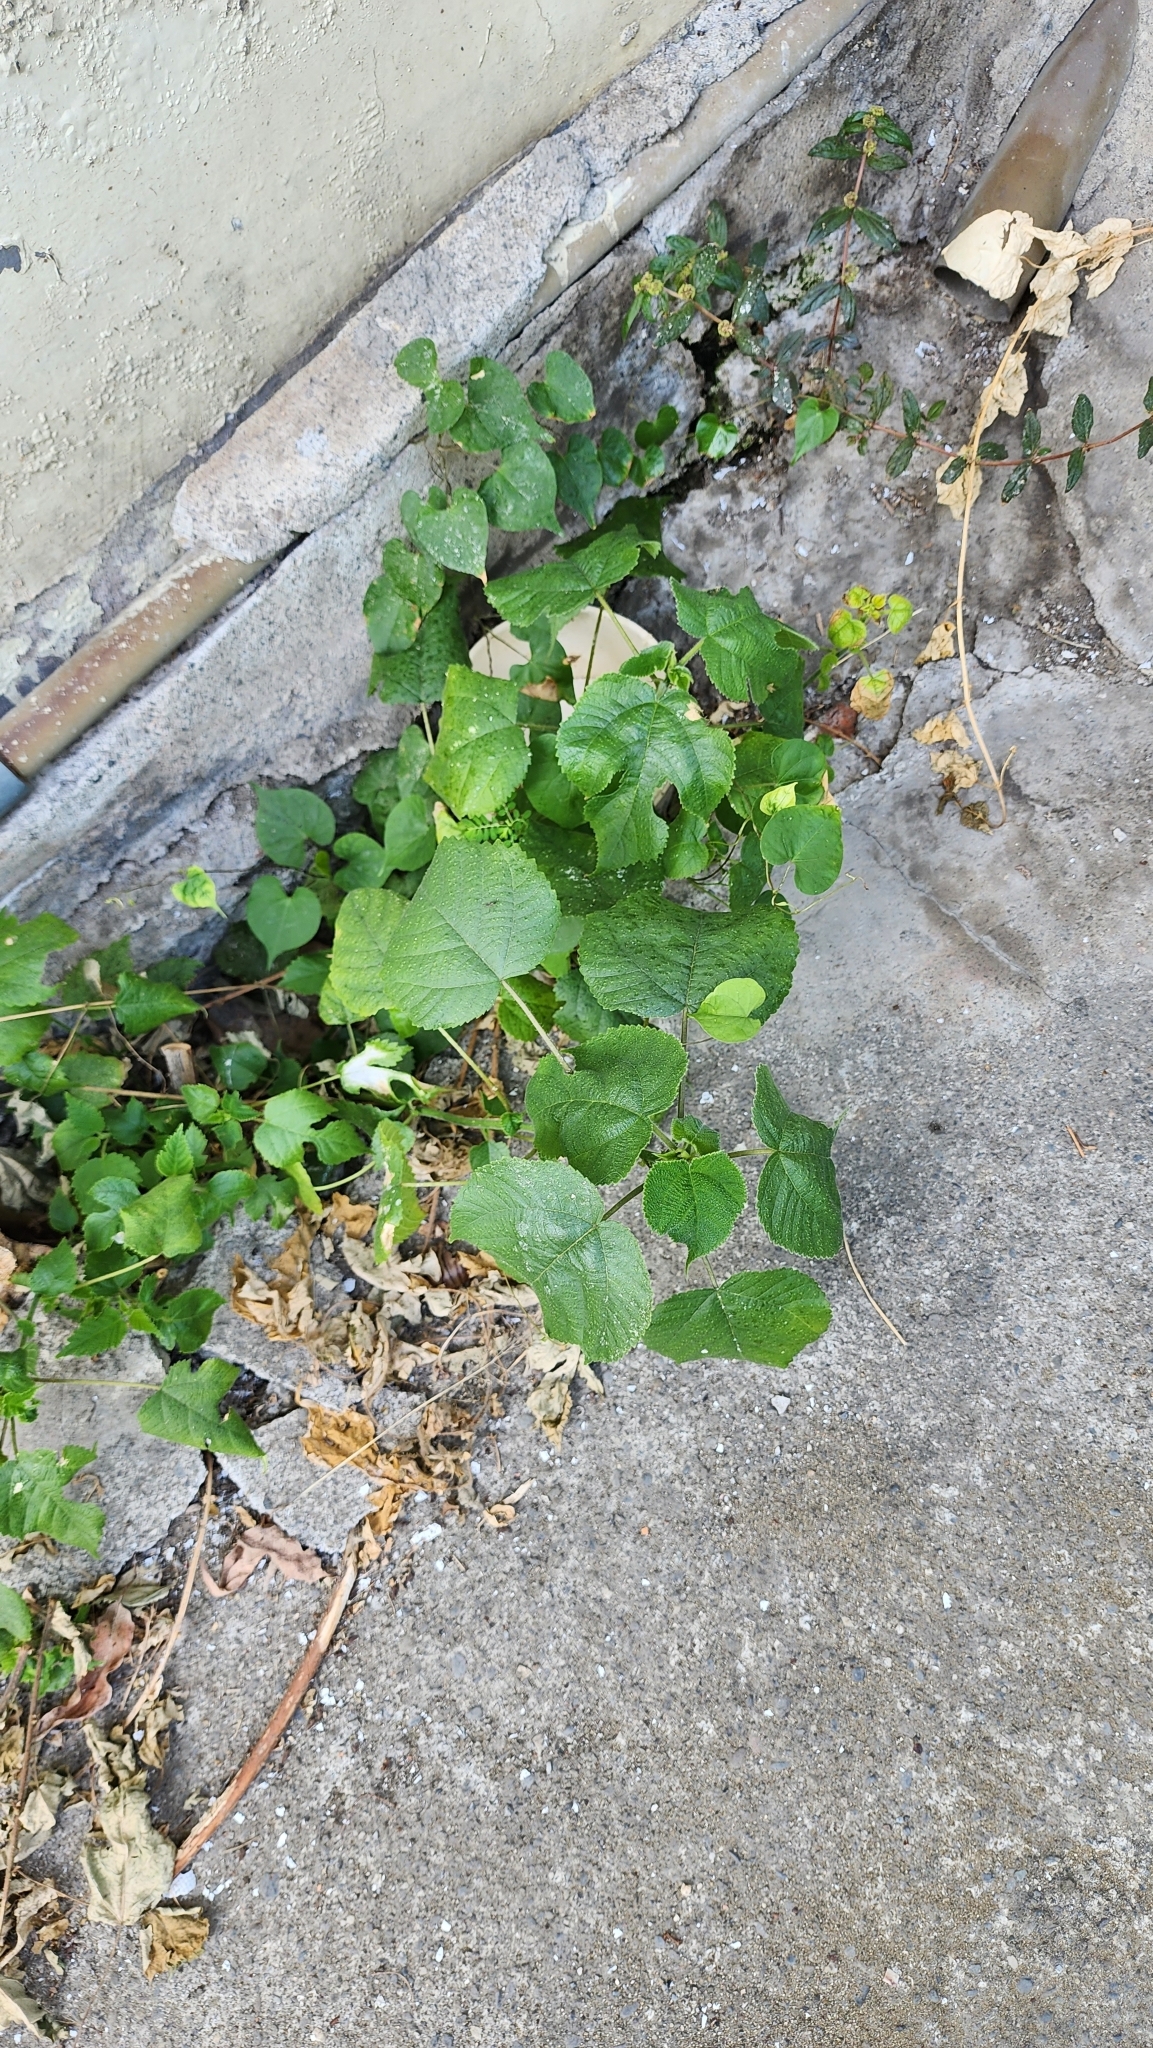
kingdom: Plantae
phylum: Tracheophyta
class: Magnoliopsida
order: Rosales
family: Moraceae
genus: Broussonetia
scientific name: Broussonetia papyrifera
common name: Paper mulberry
